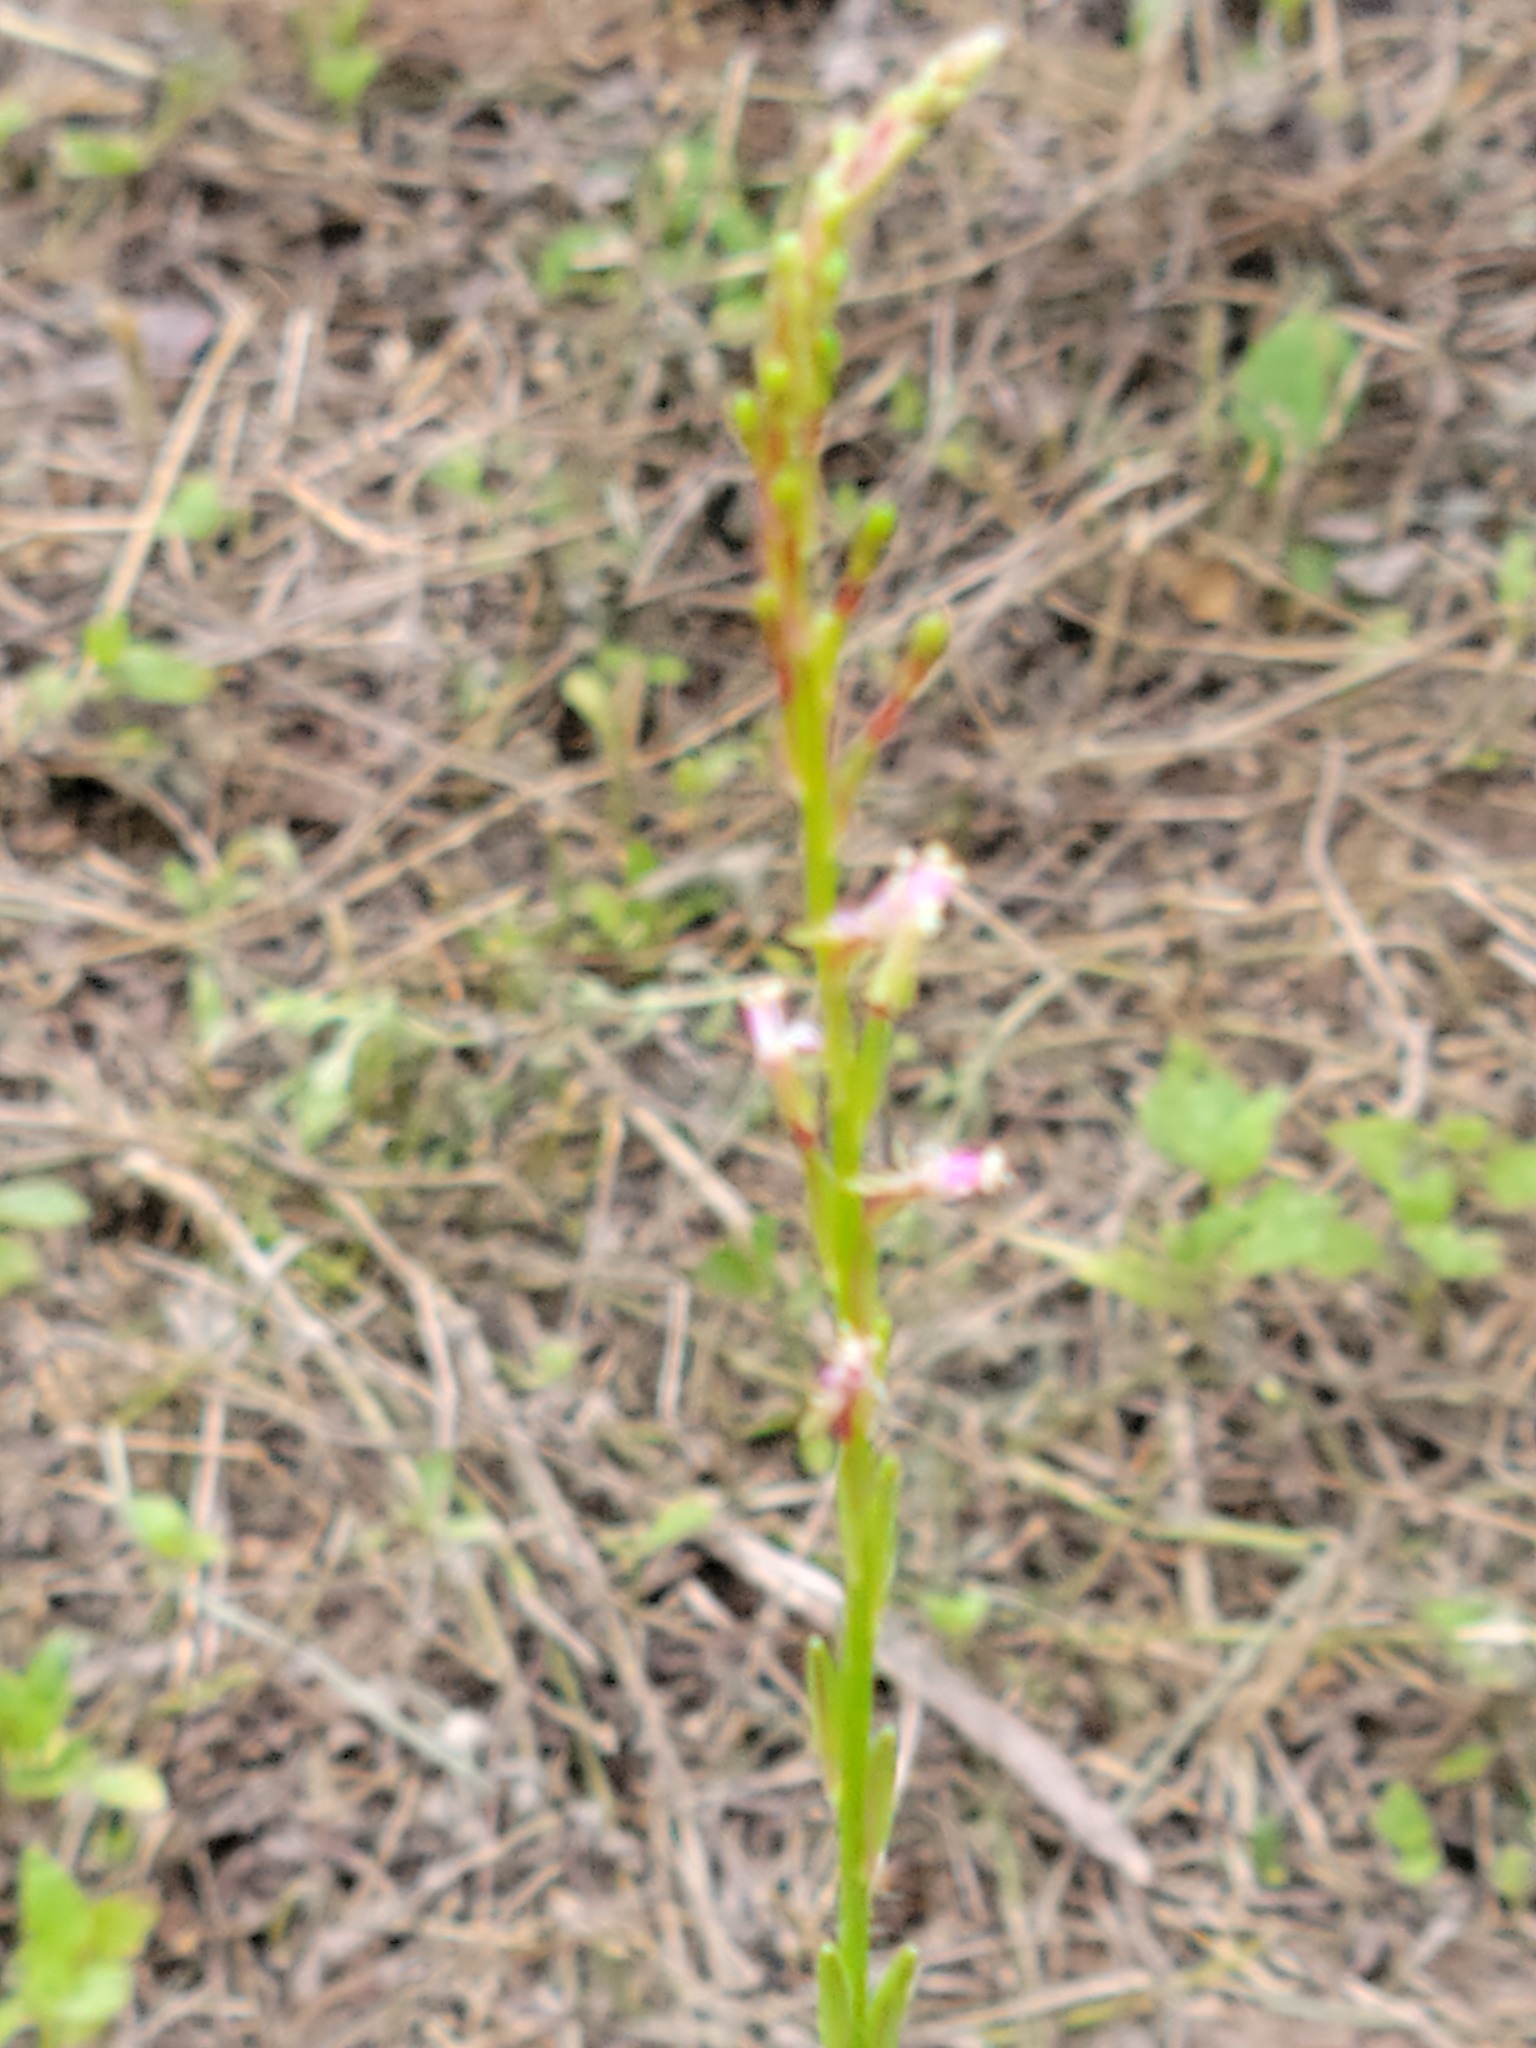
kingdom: Plantae
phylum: Tracheophyta
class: Magnoliopsida
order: Myrtales
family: Onagraceae
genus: Oenothera
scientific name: Oenothera curtiflora
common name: Velvetweed
